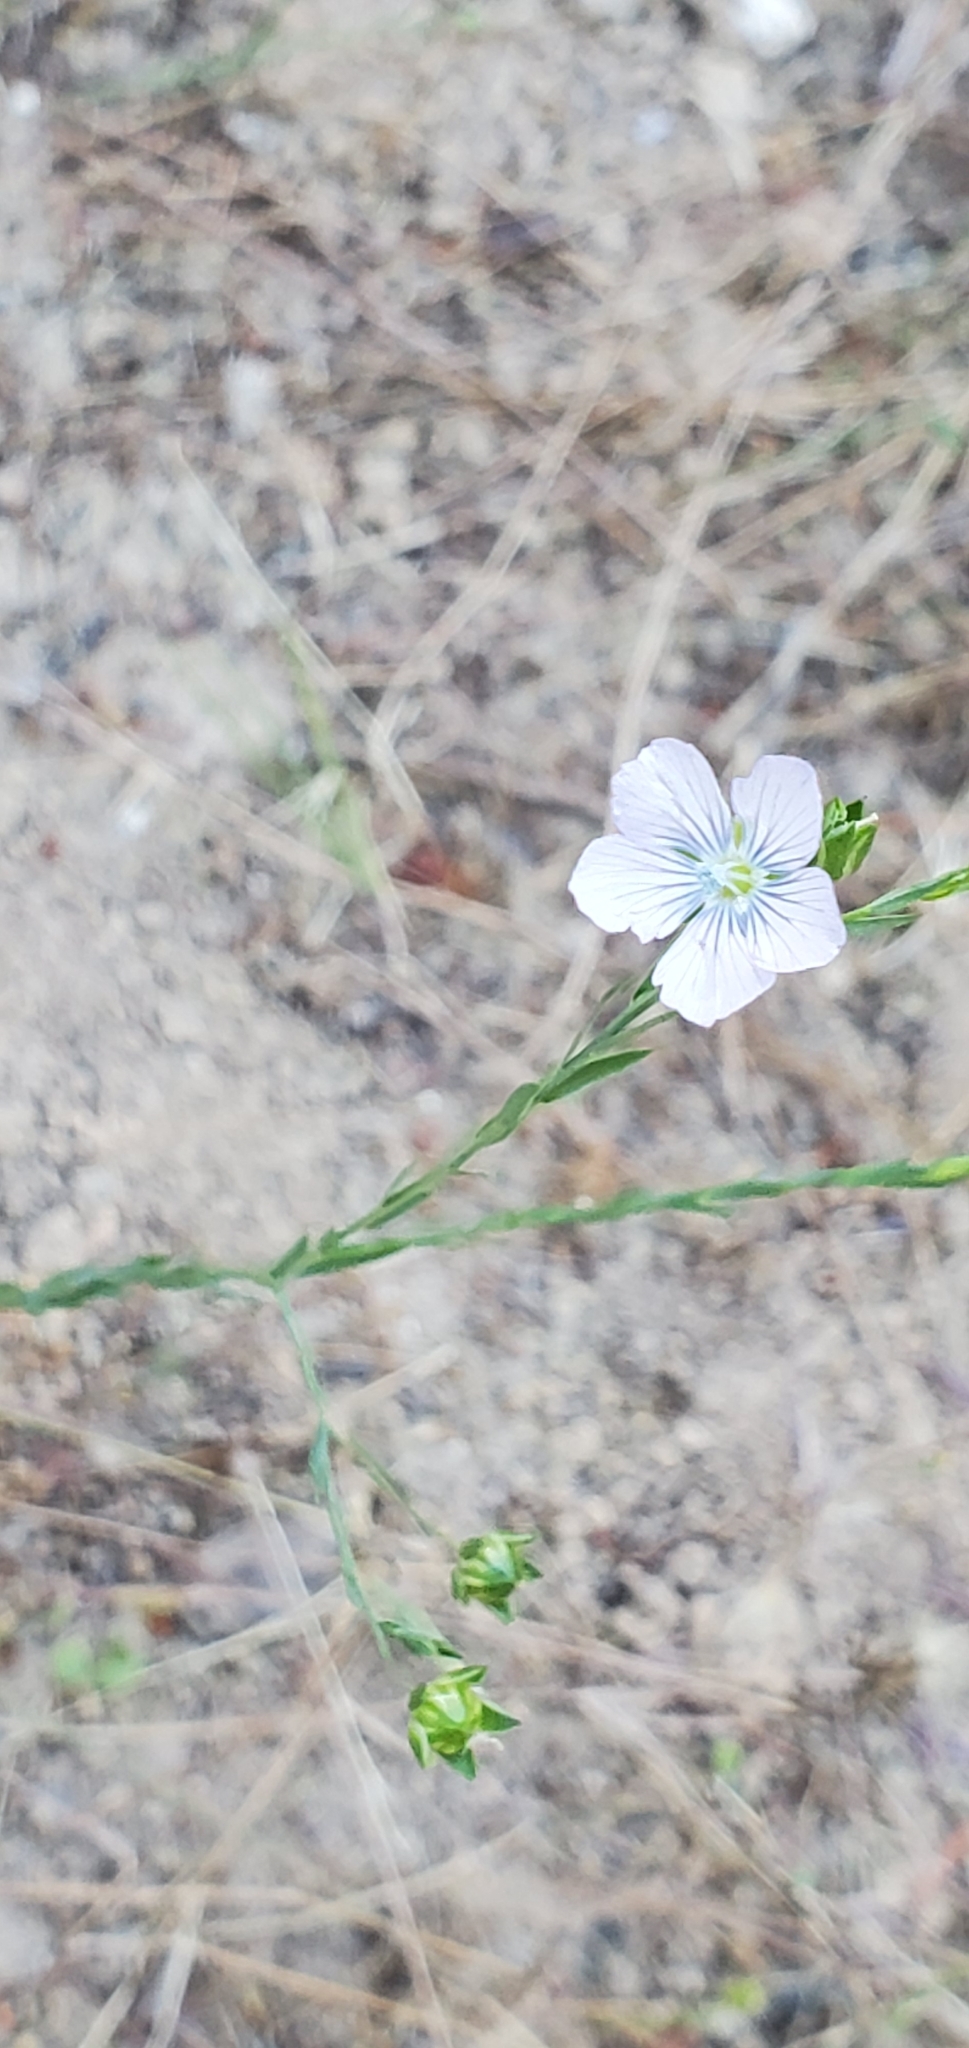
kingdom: Plantae
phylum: Tracheophyta
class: Magnoliopsida
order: Malpighiales
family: Linaceae
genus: Linum
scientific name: Linum bienne
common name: Pale flax
